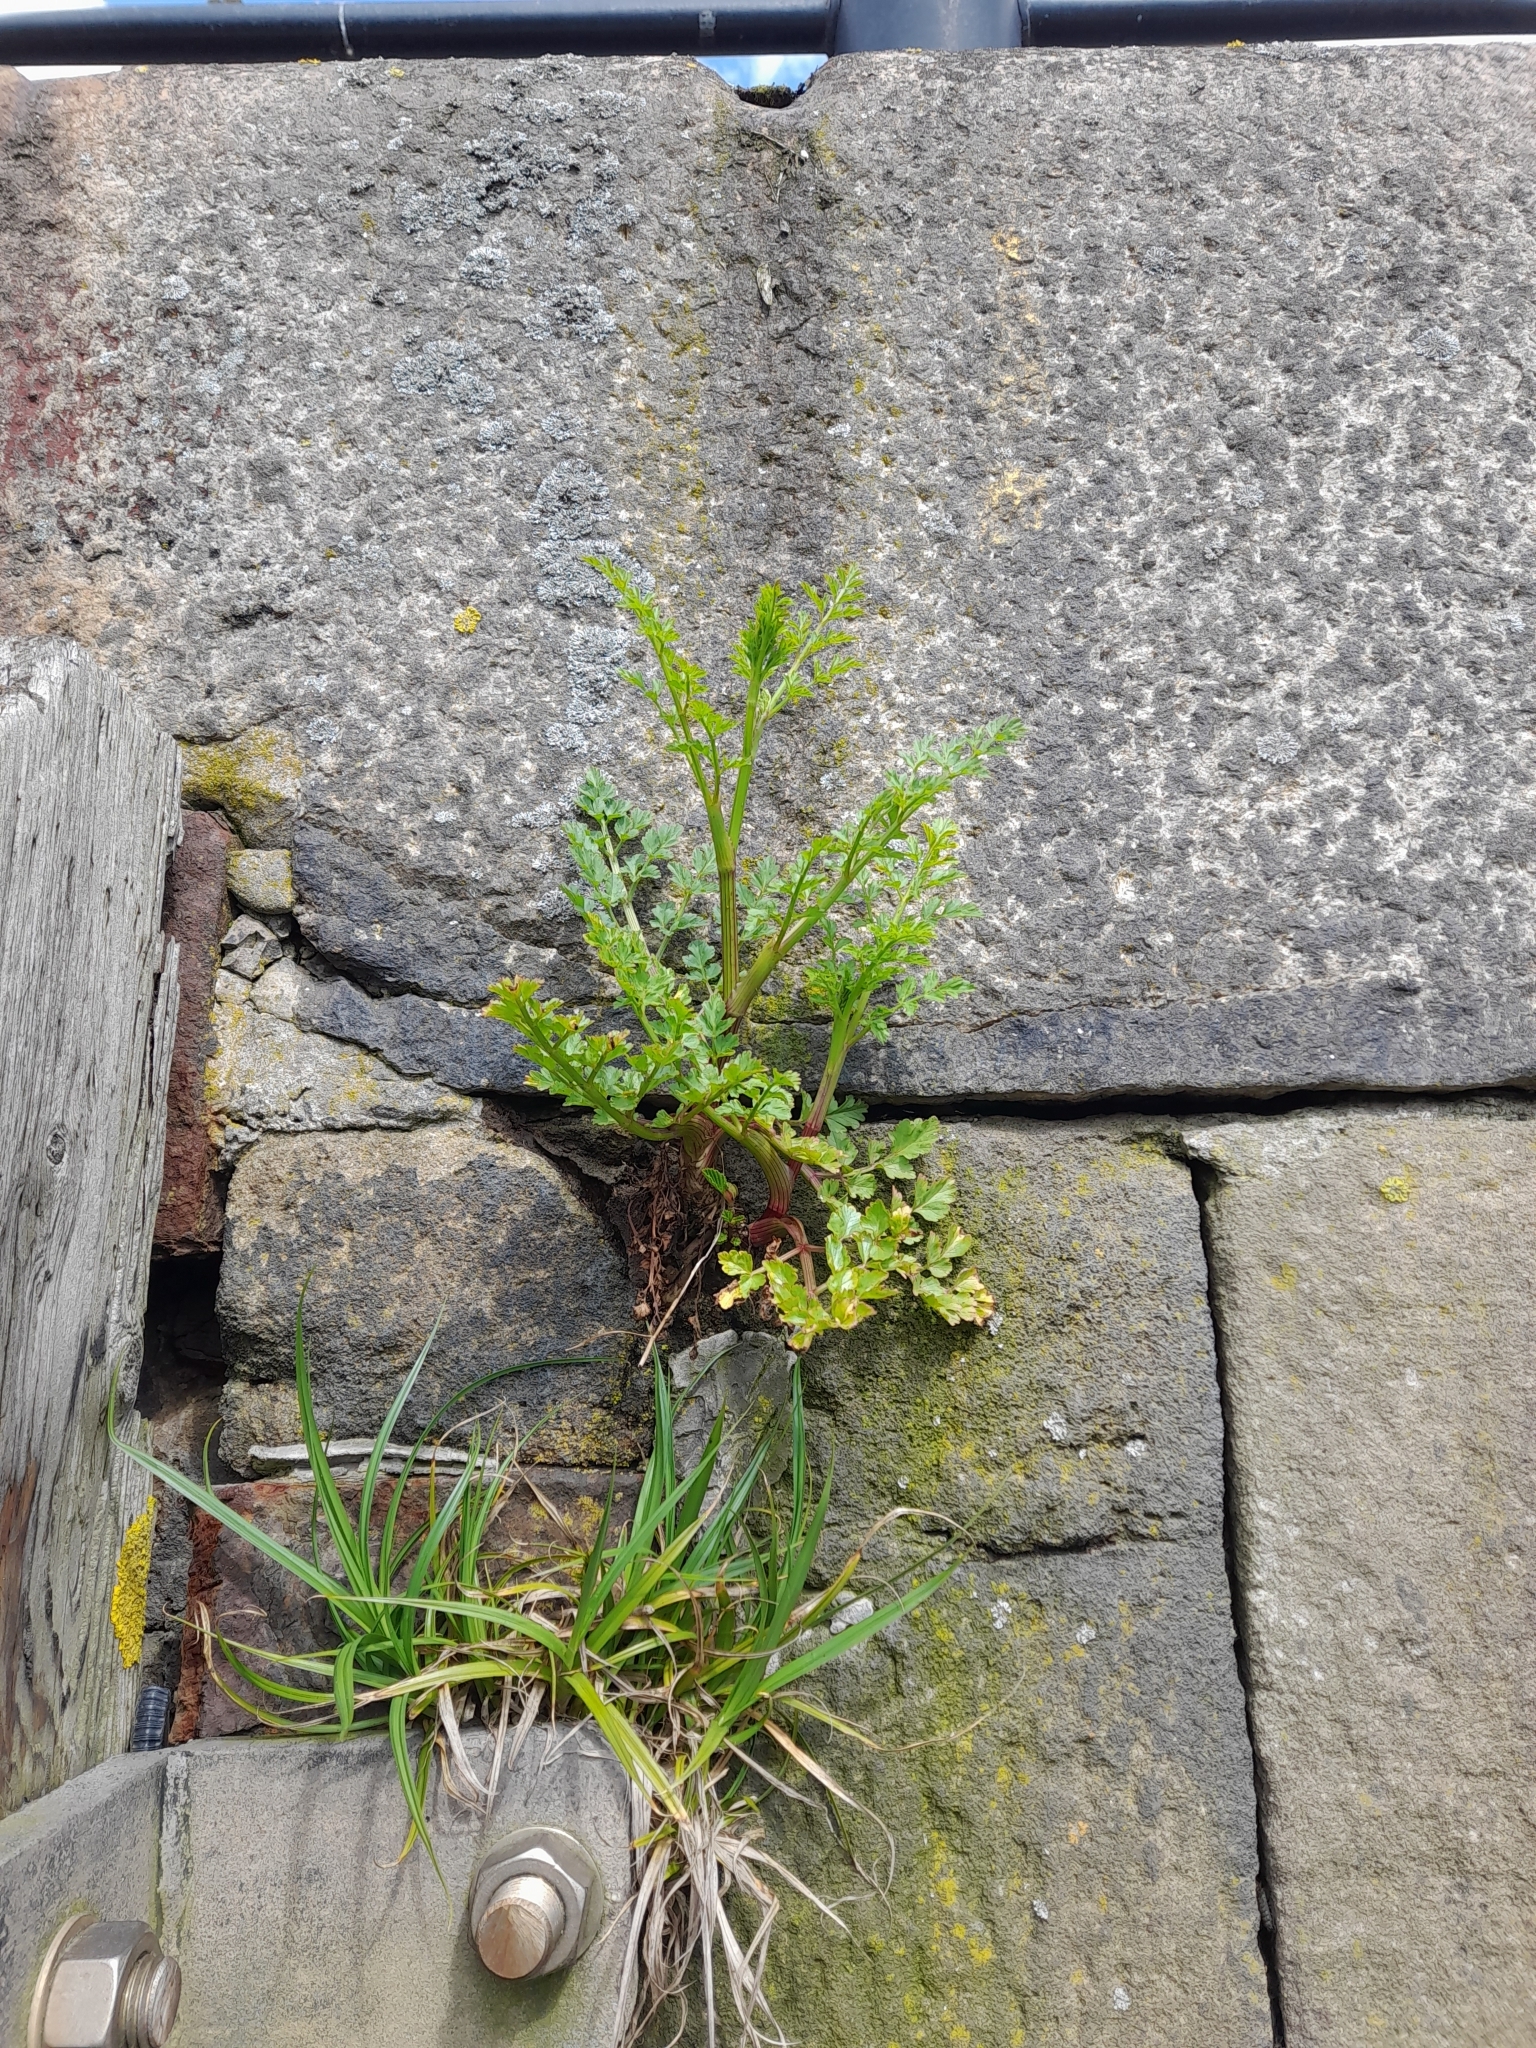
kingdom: Plantae
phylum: Tracheophyta
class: Magnoliopsida
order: Apiales
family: Apiaceae
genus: Oenanthe
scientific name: Oenanthe crocata
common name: Hemlock water-dropwort
